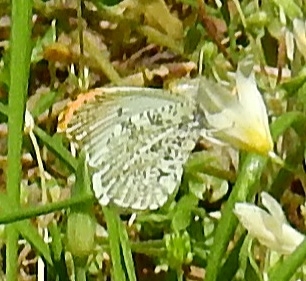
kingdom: Animalia
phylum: Arthropoda
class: Insecta
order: Lepidoptera
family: Pieridae
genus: Anthocharis
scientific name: Anthocharis midea
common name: Falcate orangetip
